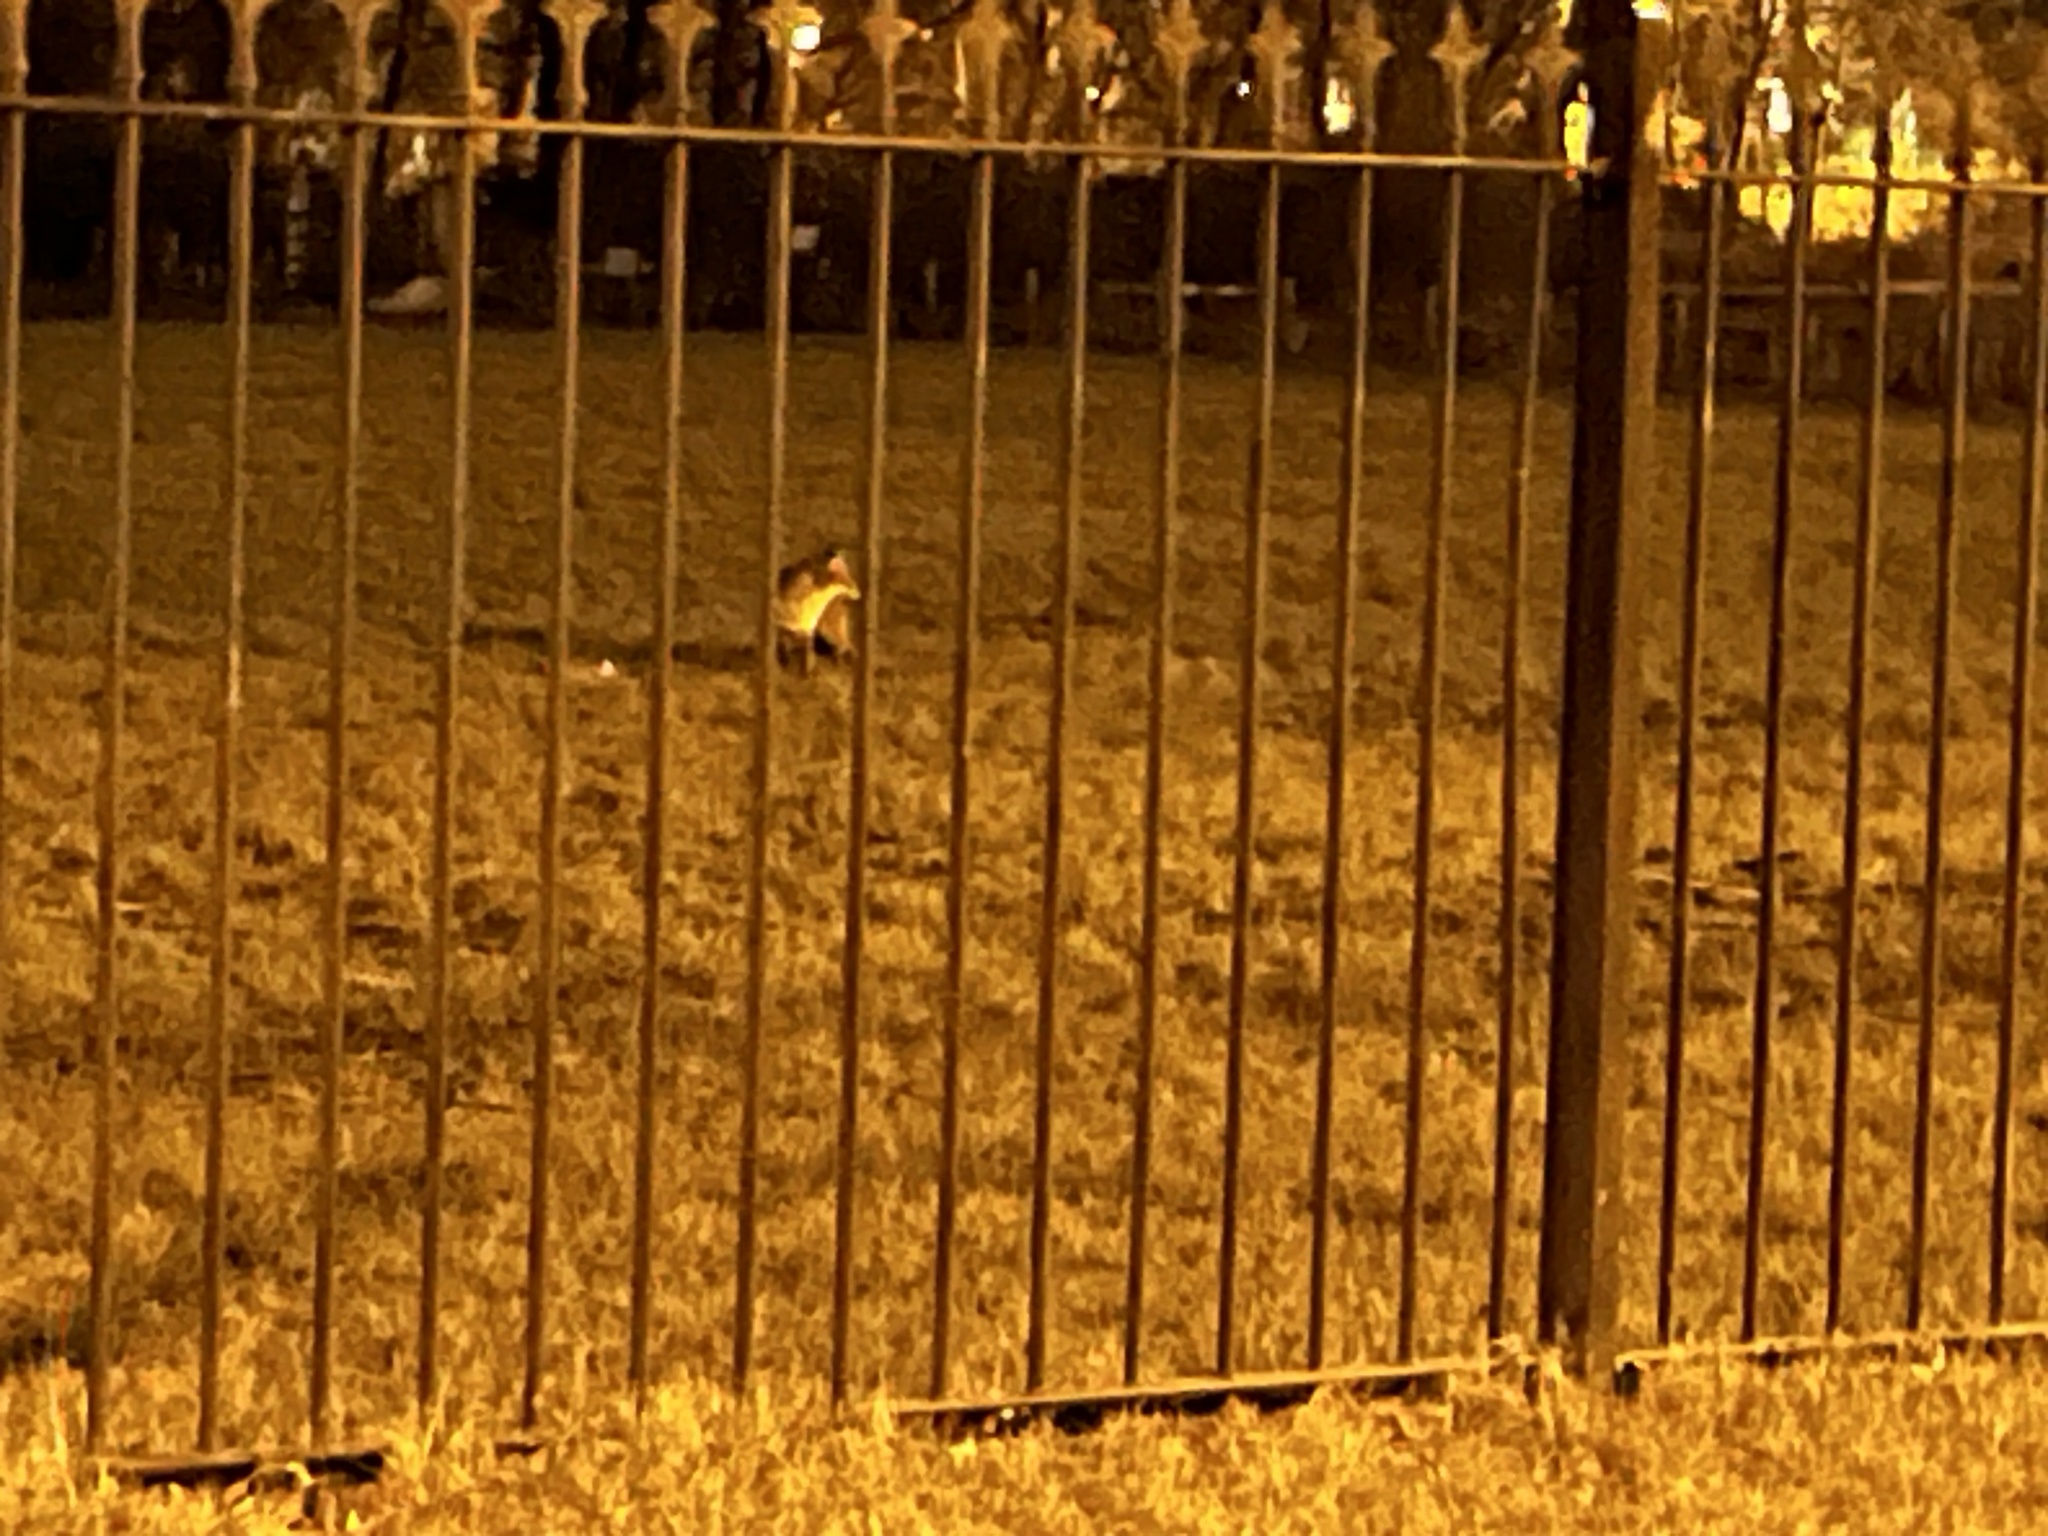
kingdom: Animalia
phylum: Chordata
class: Mammalia
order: Carnivora
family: Canidae
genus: Vulpes
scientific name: Vulpes vulpes
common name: Red fox
